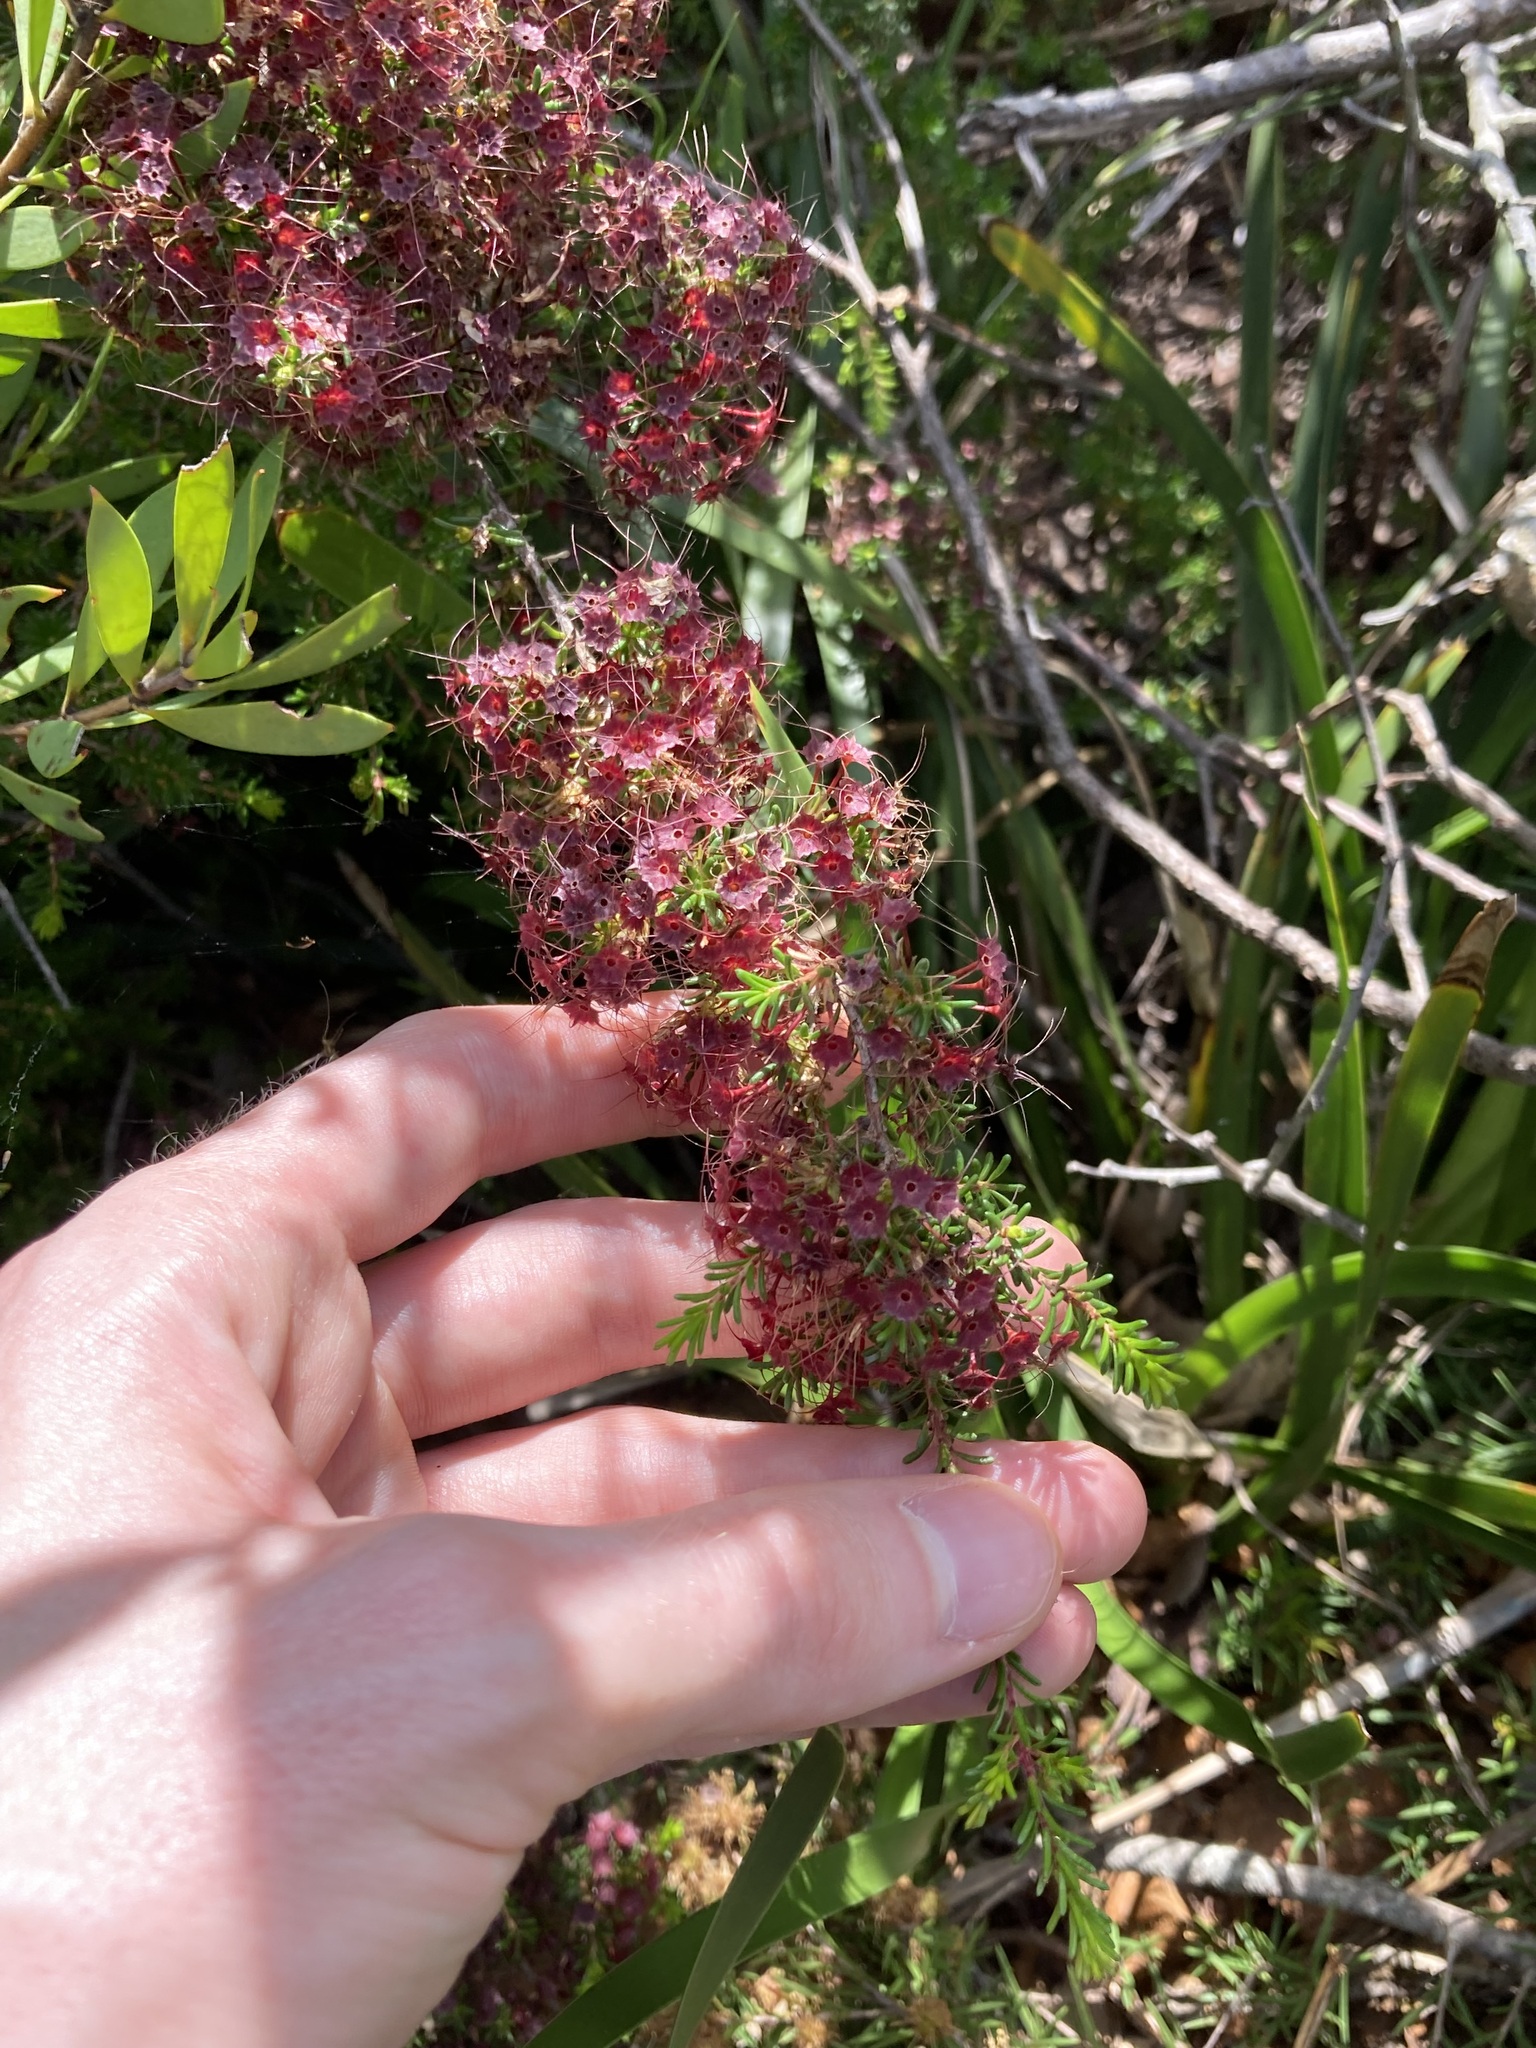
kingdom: Plantae
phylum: Tracheophyta
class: Magnoliopsida
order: Myrtales
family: Myrtaceae
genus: Calytrix
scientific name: Calytrix tetragona
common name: Common fringe myrtle
